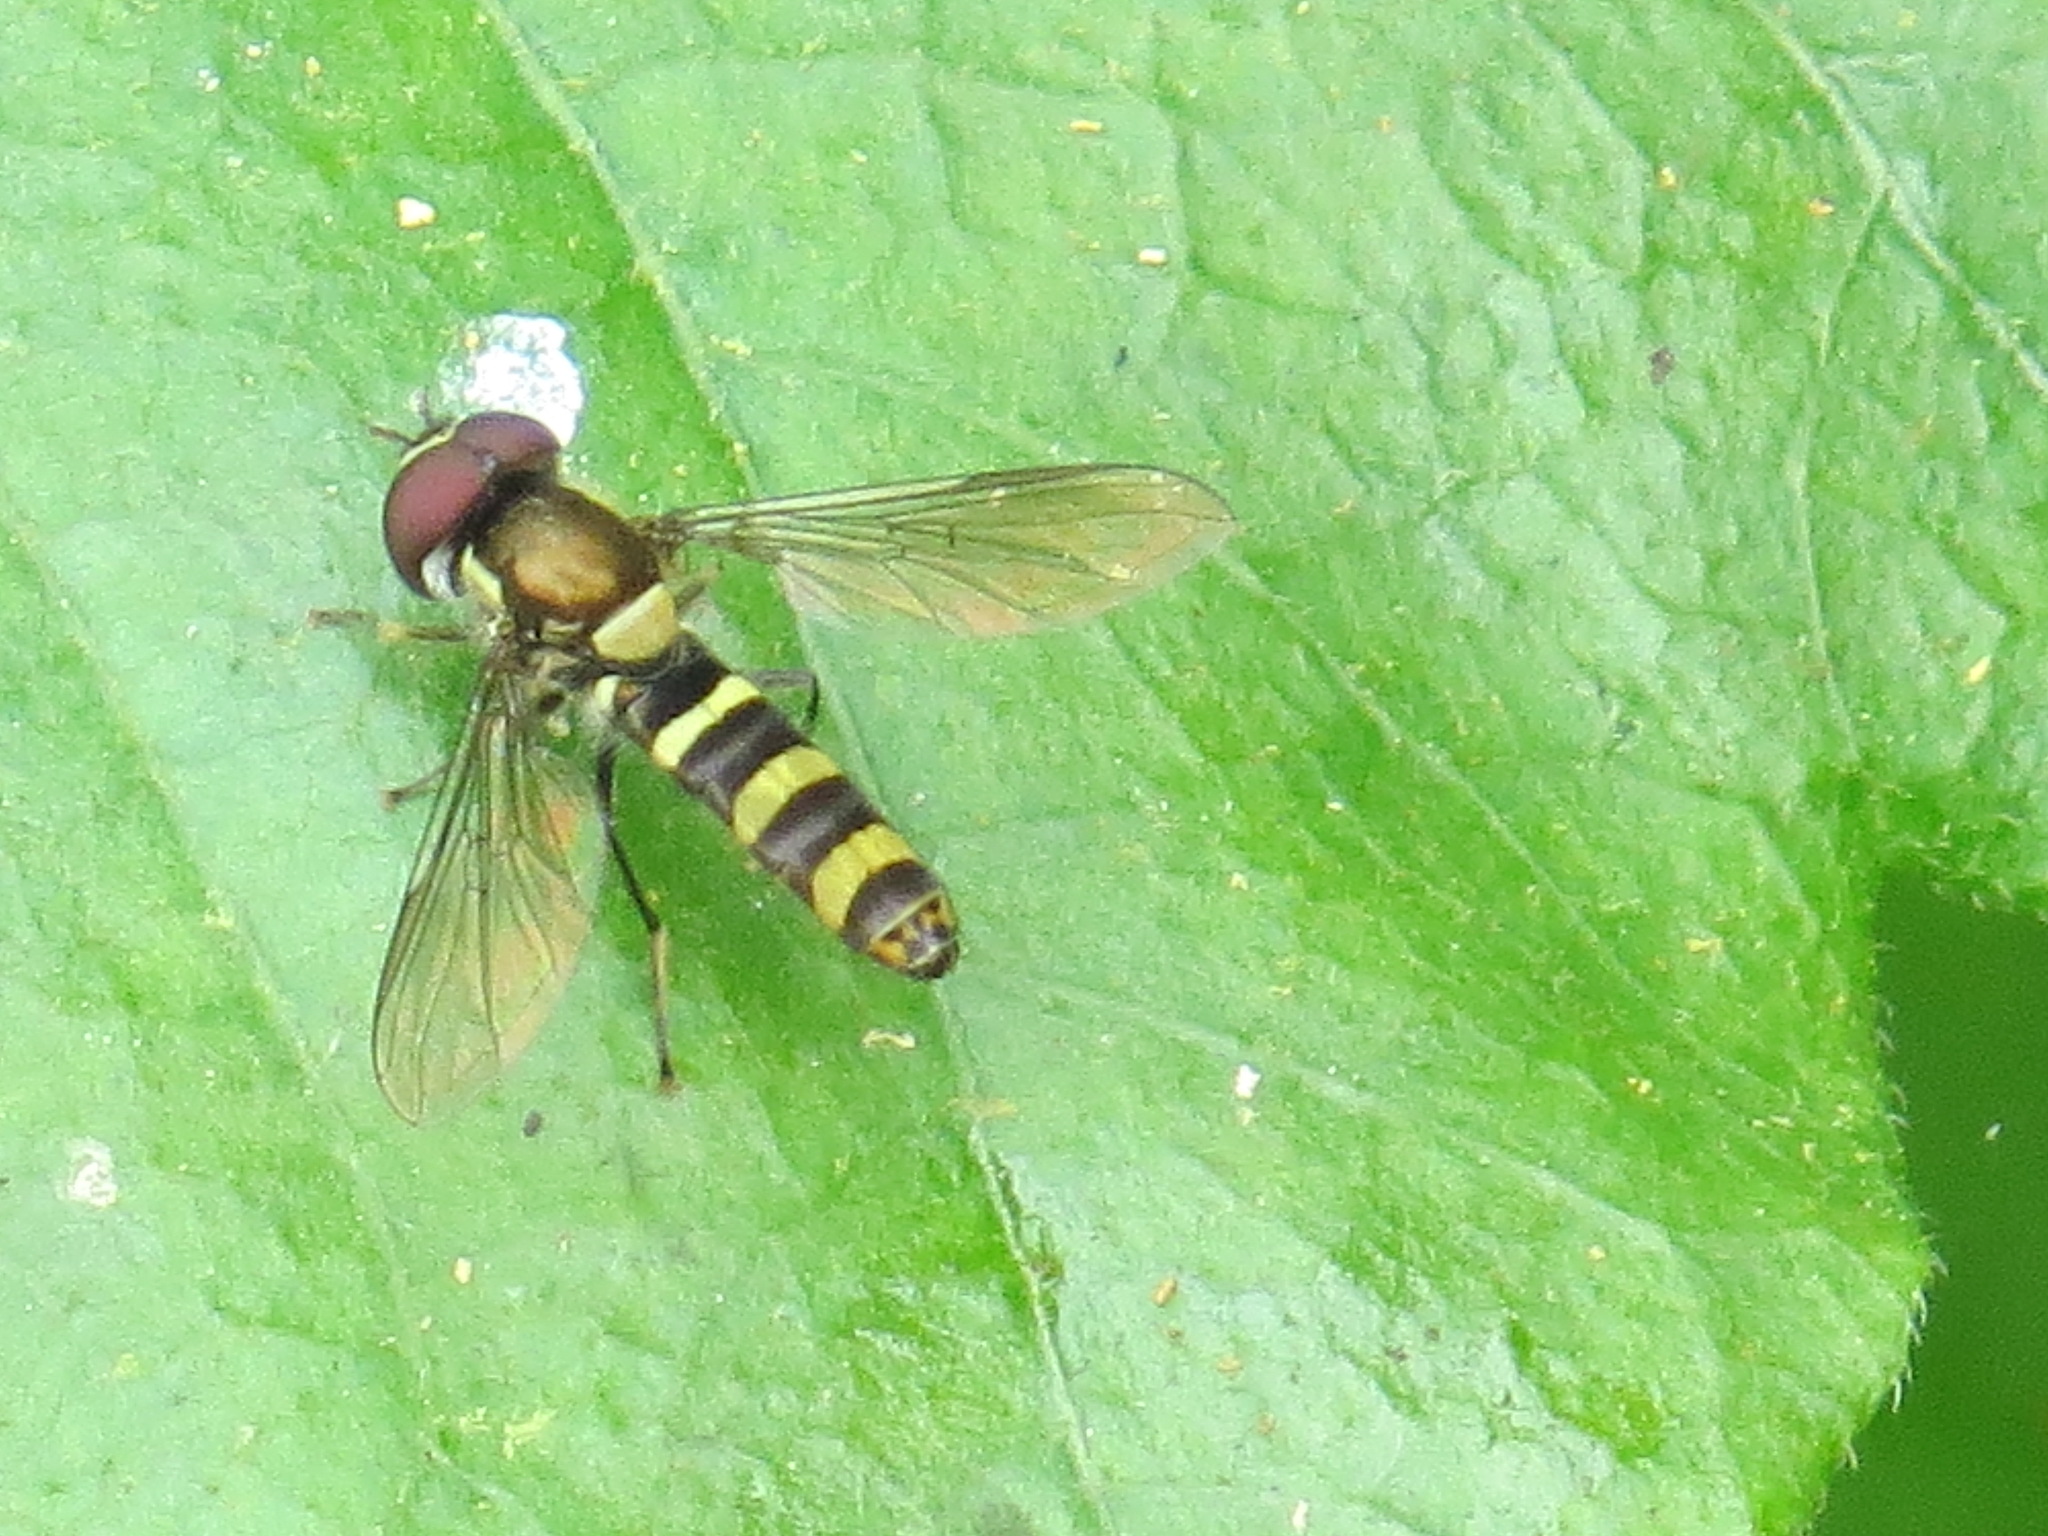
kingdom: Animalia
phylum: Arthropoda
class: Insecta
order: Diptera
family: Syrphidae
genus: Fazia
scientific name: Fazia micrura
